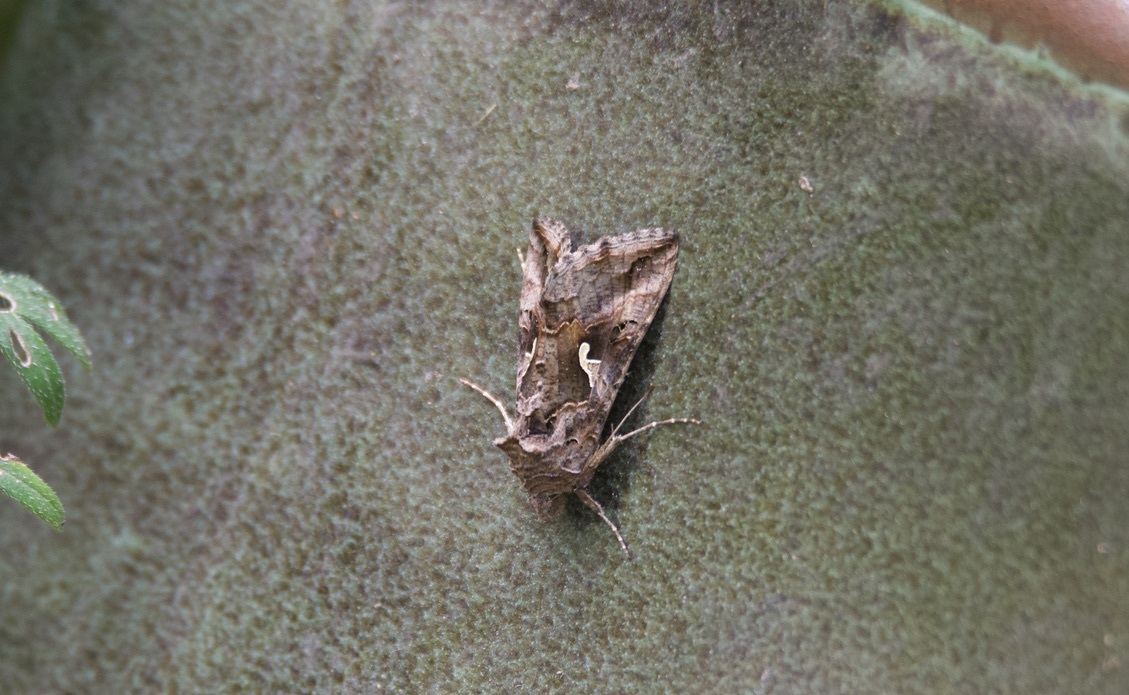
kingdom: Animalia
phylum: Arthropoda
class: Insecta
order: Lepidoptera
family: Noctuidae
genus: Autographa
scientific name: Autographa gamma
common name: Silver y
